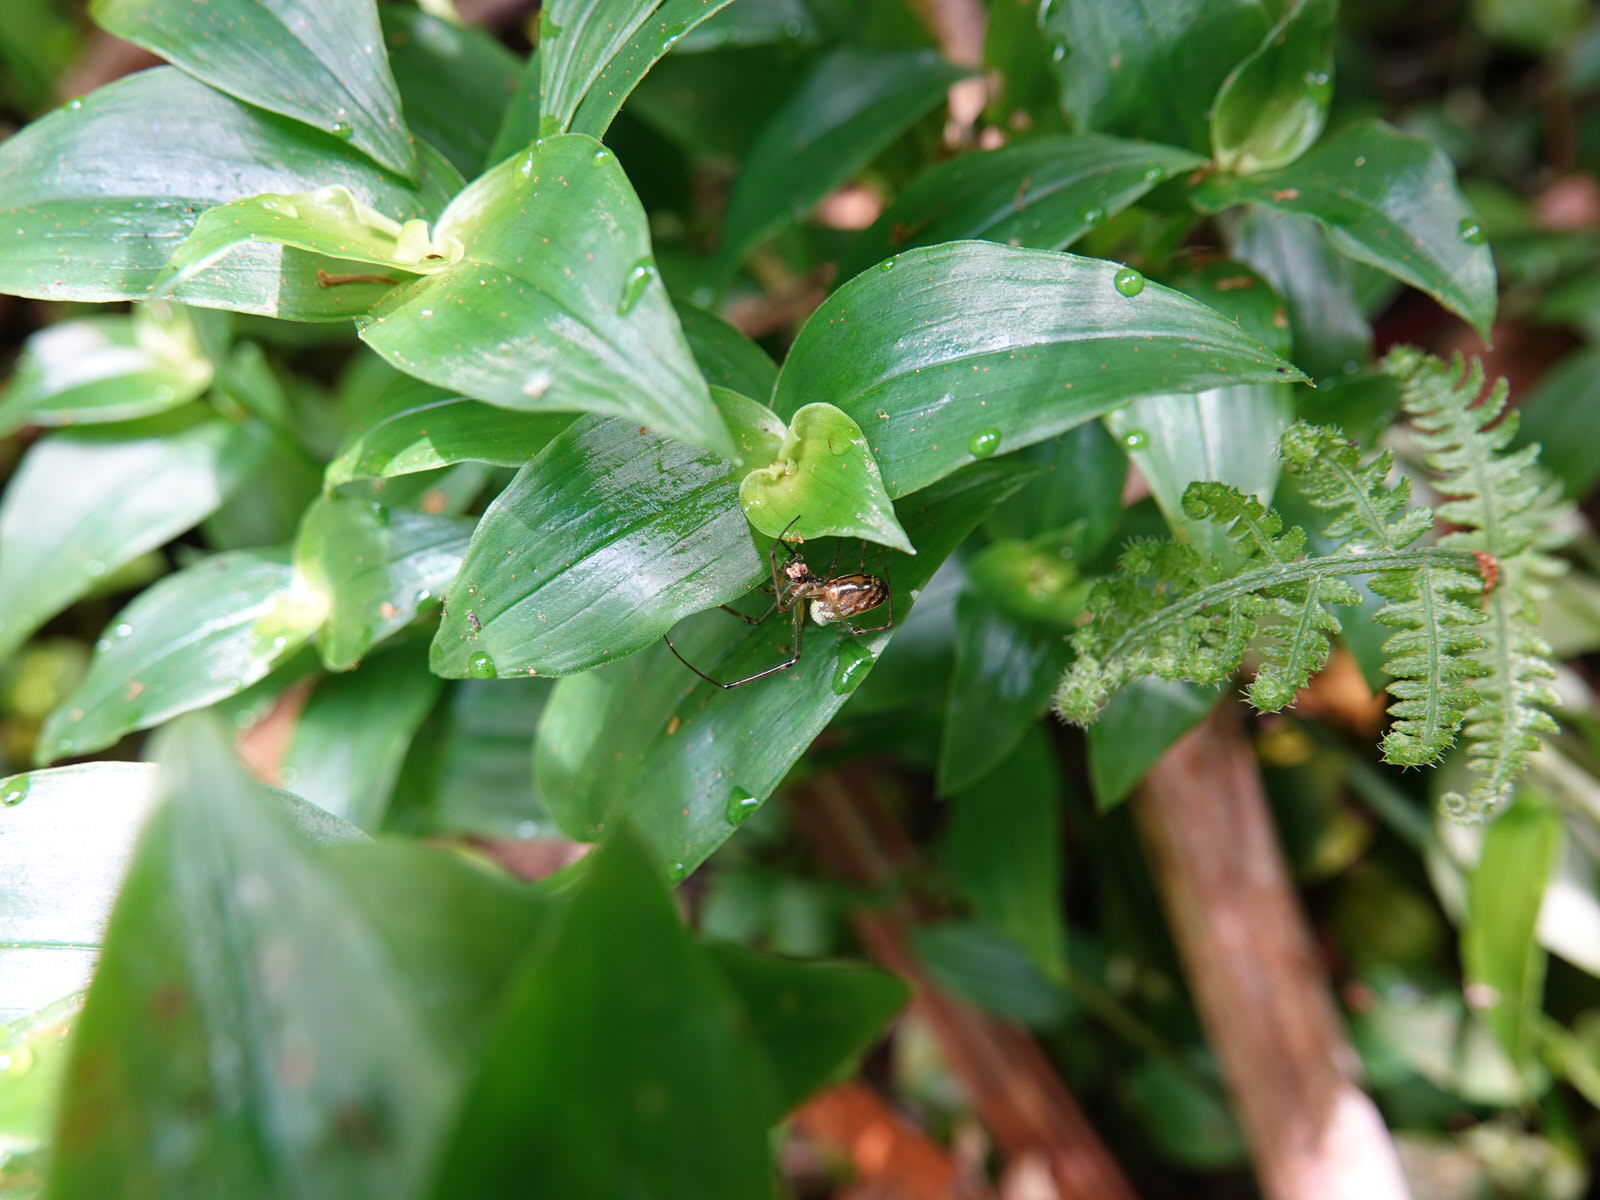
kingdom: Animalia
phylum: Arthropoda
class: Arachnida
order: Araneae
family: Tetragnathidae
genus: Leucauge
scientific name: Leucauge dromedaria
